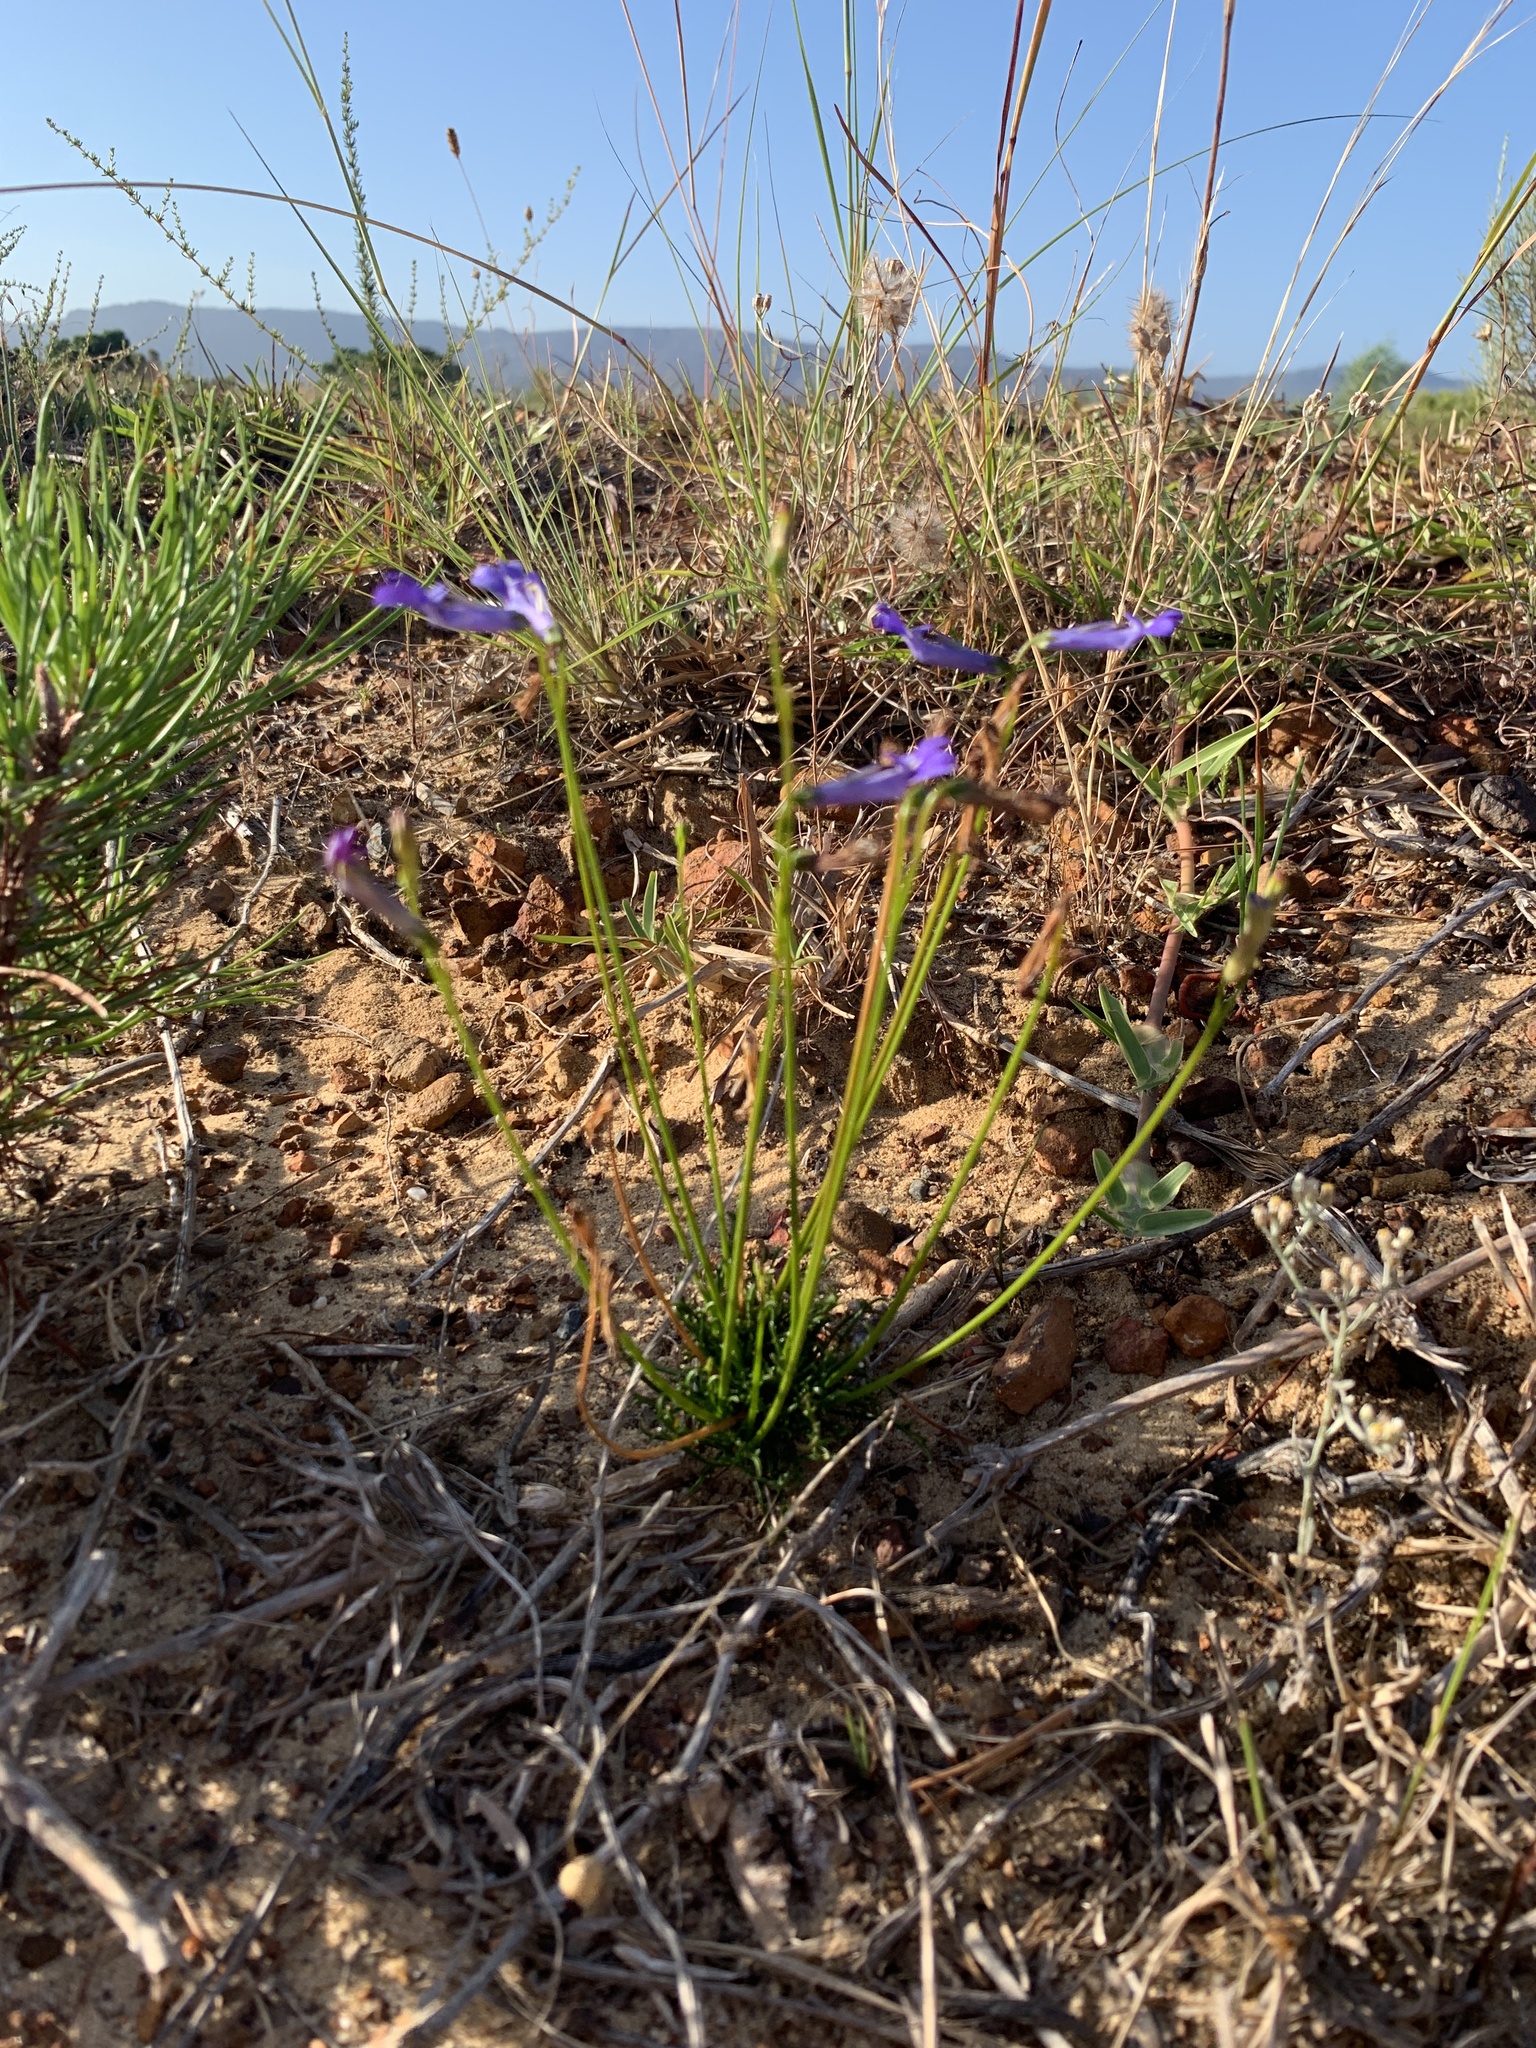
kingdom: Plantae
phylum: Tracheophyta
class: Magnoliopsida
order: Asterales
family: Campanulaceae
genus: Lobelia
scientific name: Lobelia coronopifolia
